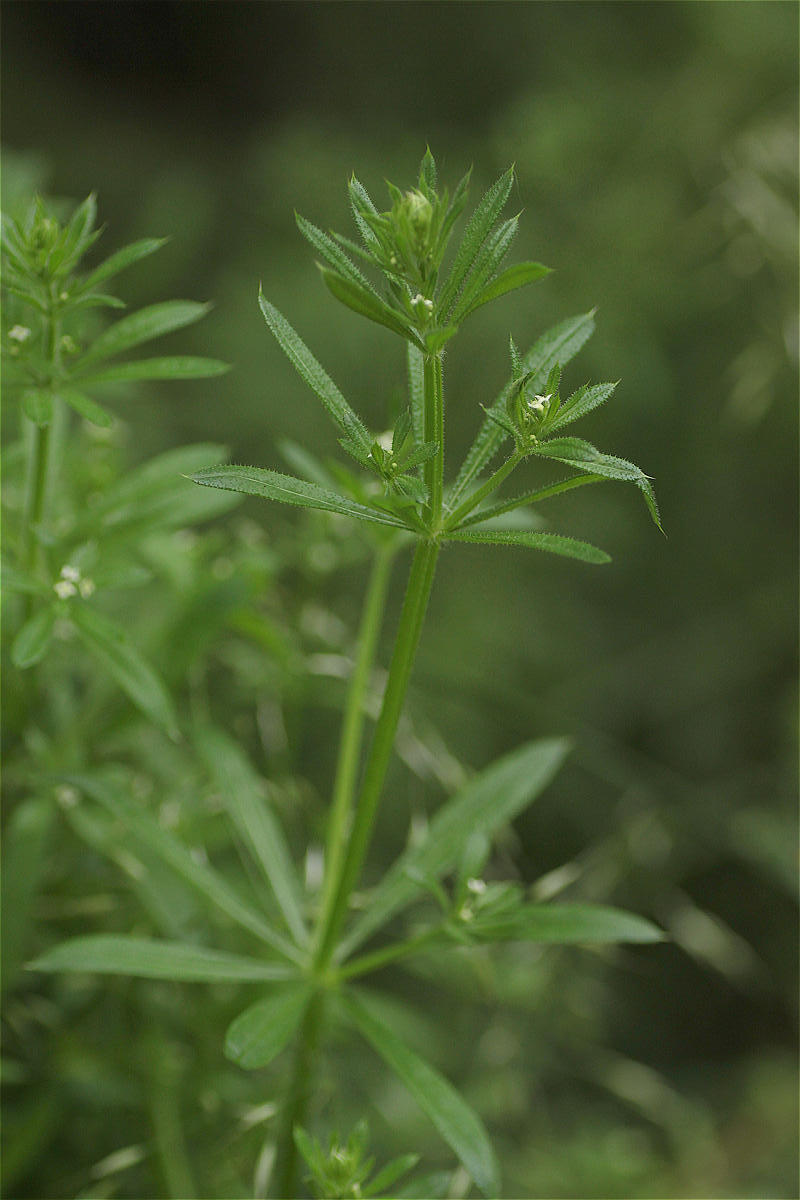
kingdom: Plantae
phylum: Tracheophyta
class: Magnoliopsida
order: Gentianales
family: Rubiaceae
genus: Galium
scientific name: Galium aparine
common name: Cleavers
